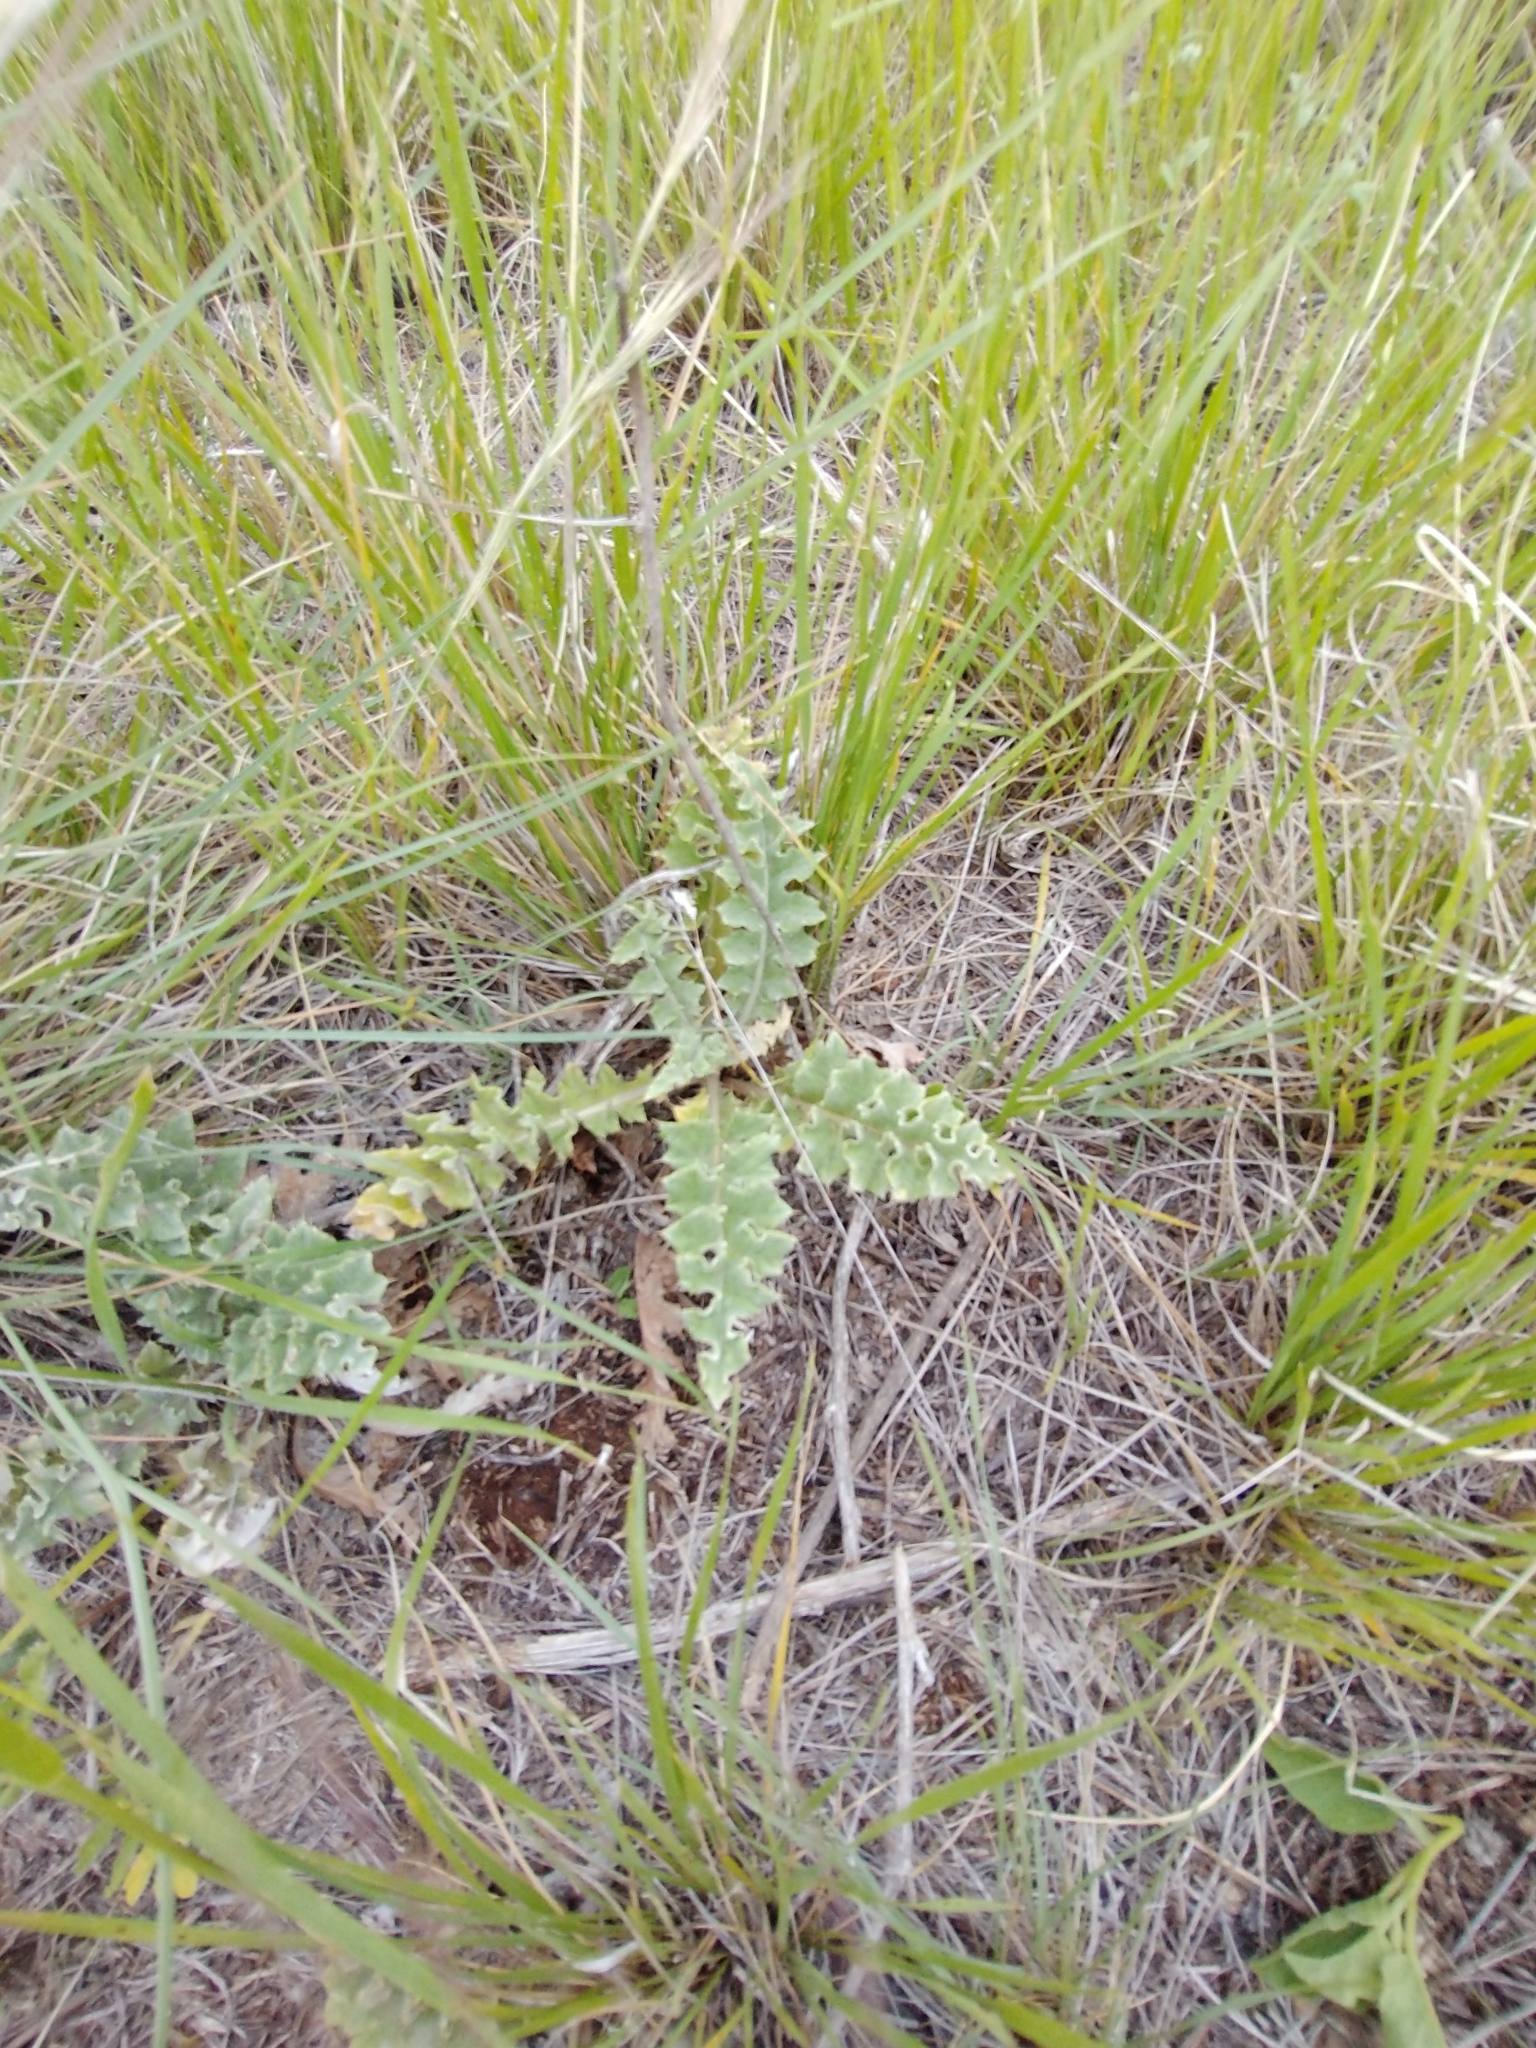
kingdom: Plantae
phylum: Tracheophyta
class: Magnoliopsida
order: Asterales
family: Asteraceae
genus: Cirsium
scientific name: Cirsium undulatum
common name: Pasture thistle
